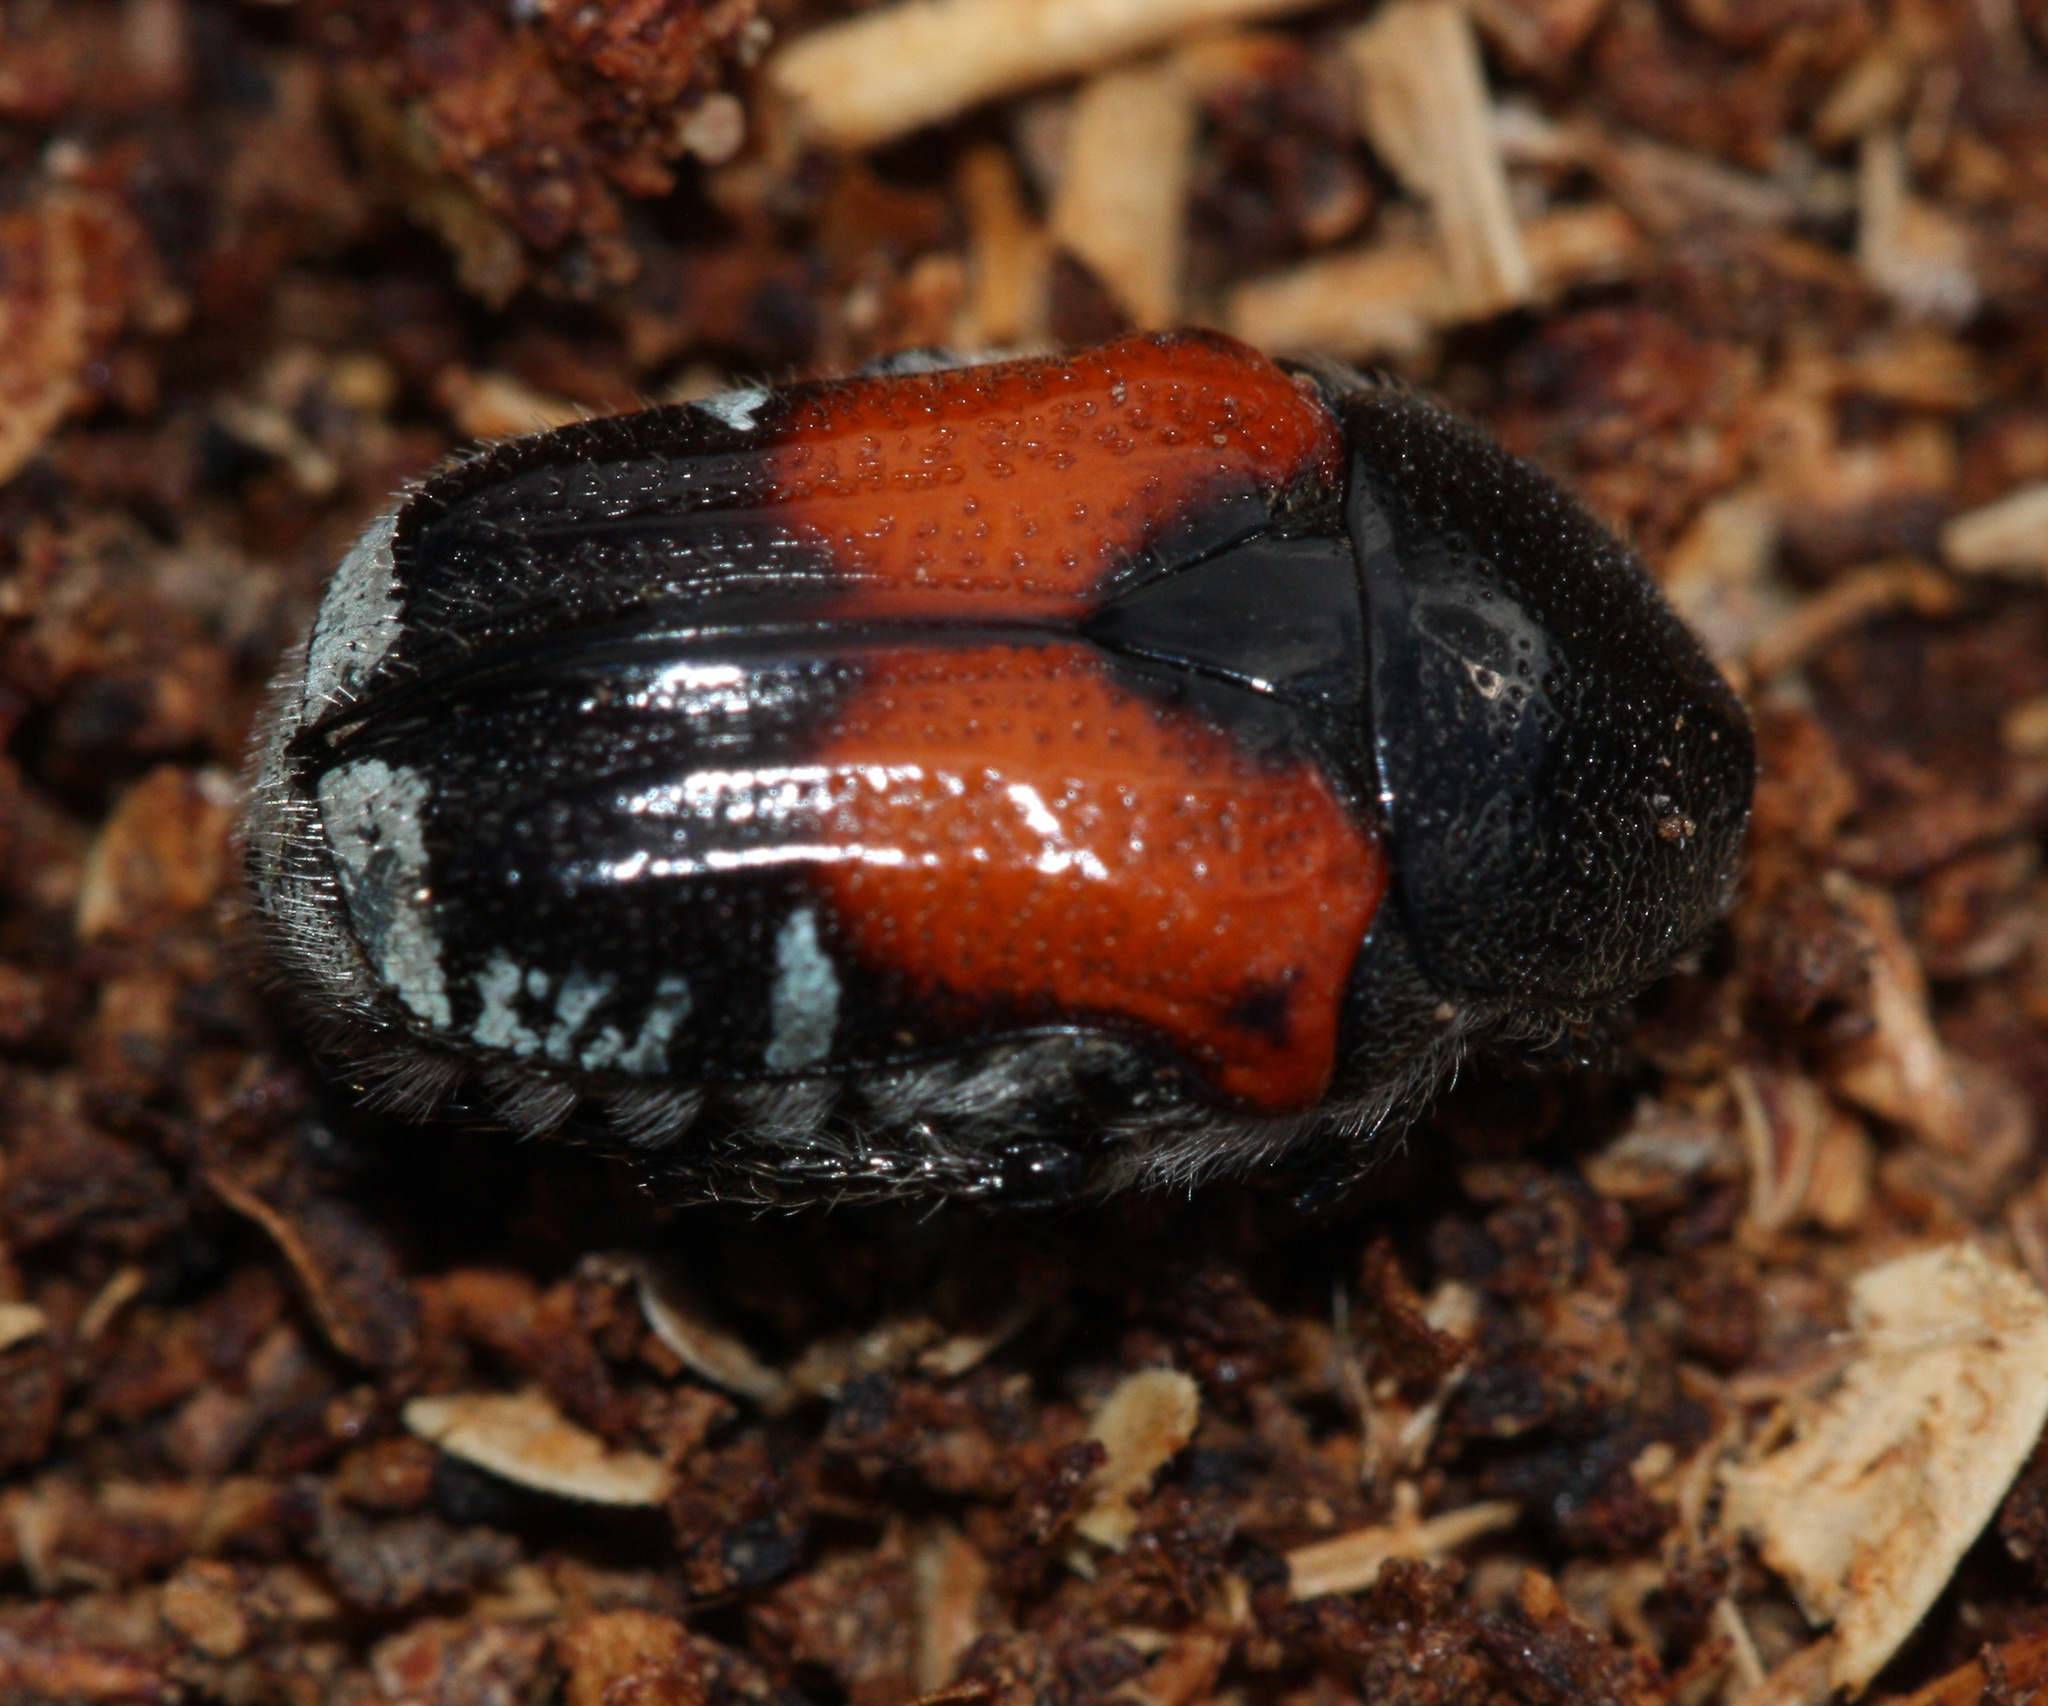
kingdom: Animalia
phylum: Arthropoda
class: Insecta
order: Coleoptera
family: Scarabaeidae
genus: Euphoria
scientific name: Euphoria canescens
